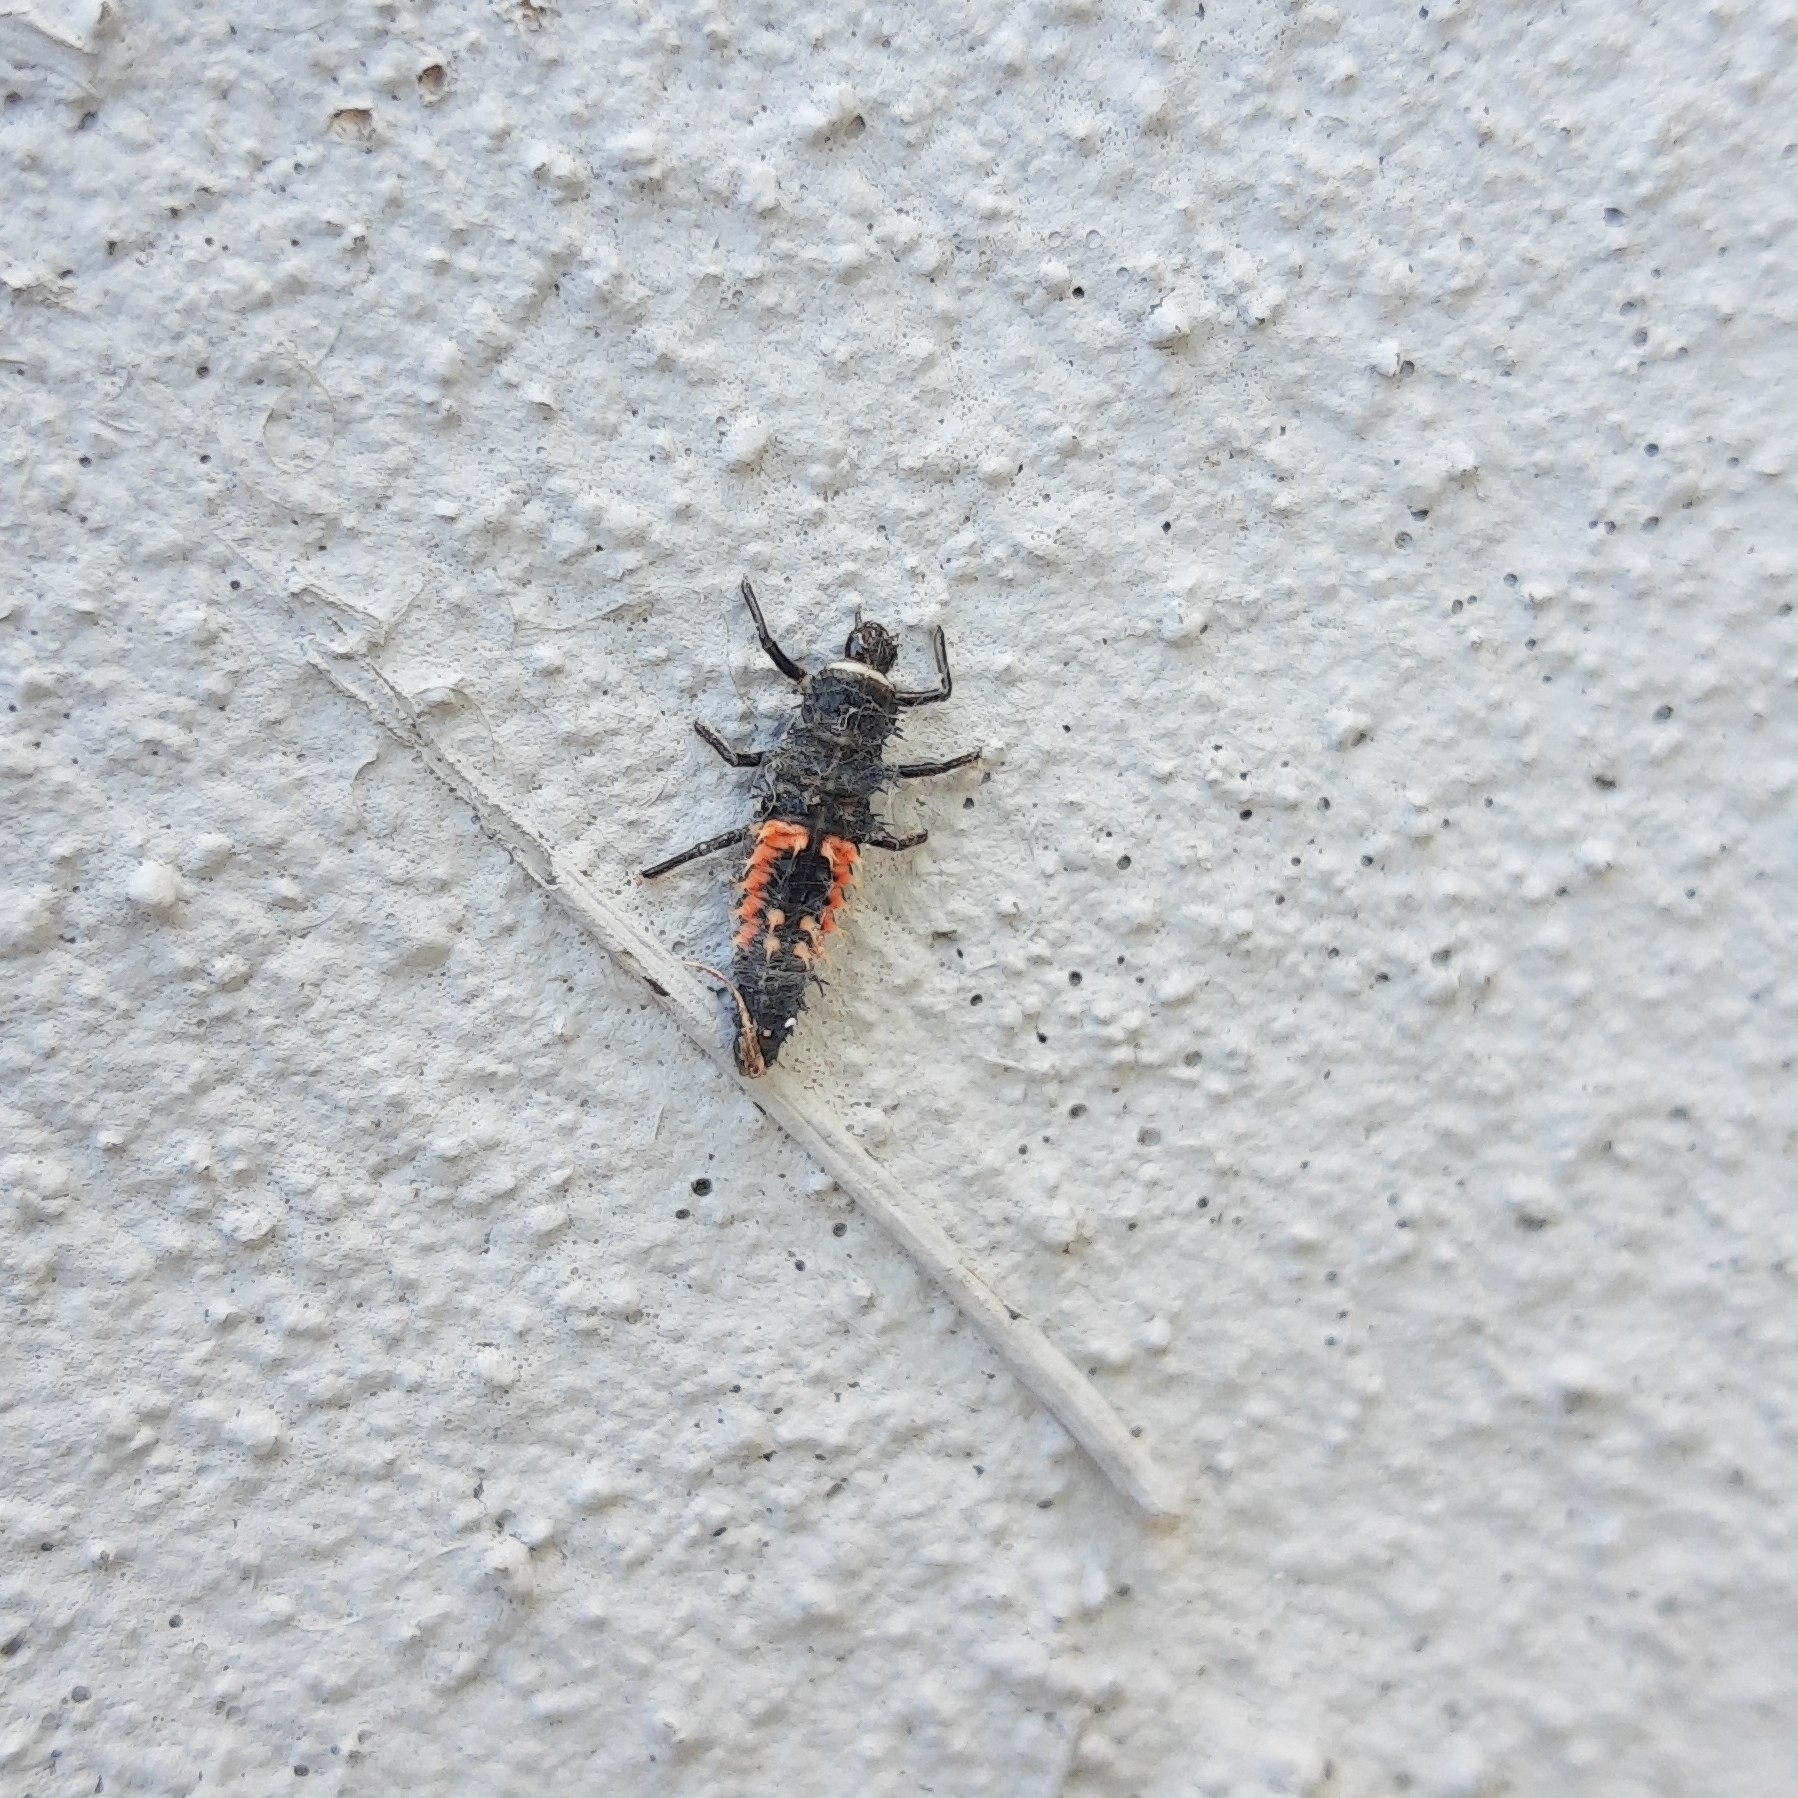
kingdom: Animalia
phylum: Arthropoda
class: Insecta
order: Coleoptera
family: Coccinellidae
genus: Harmonia
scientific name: Harmonia axyridis
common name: Harlequin ladybird
